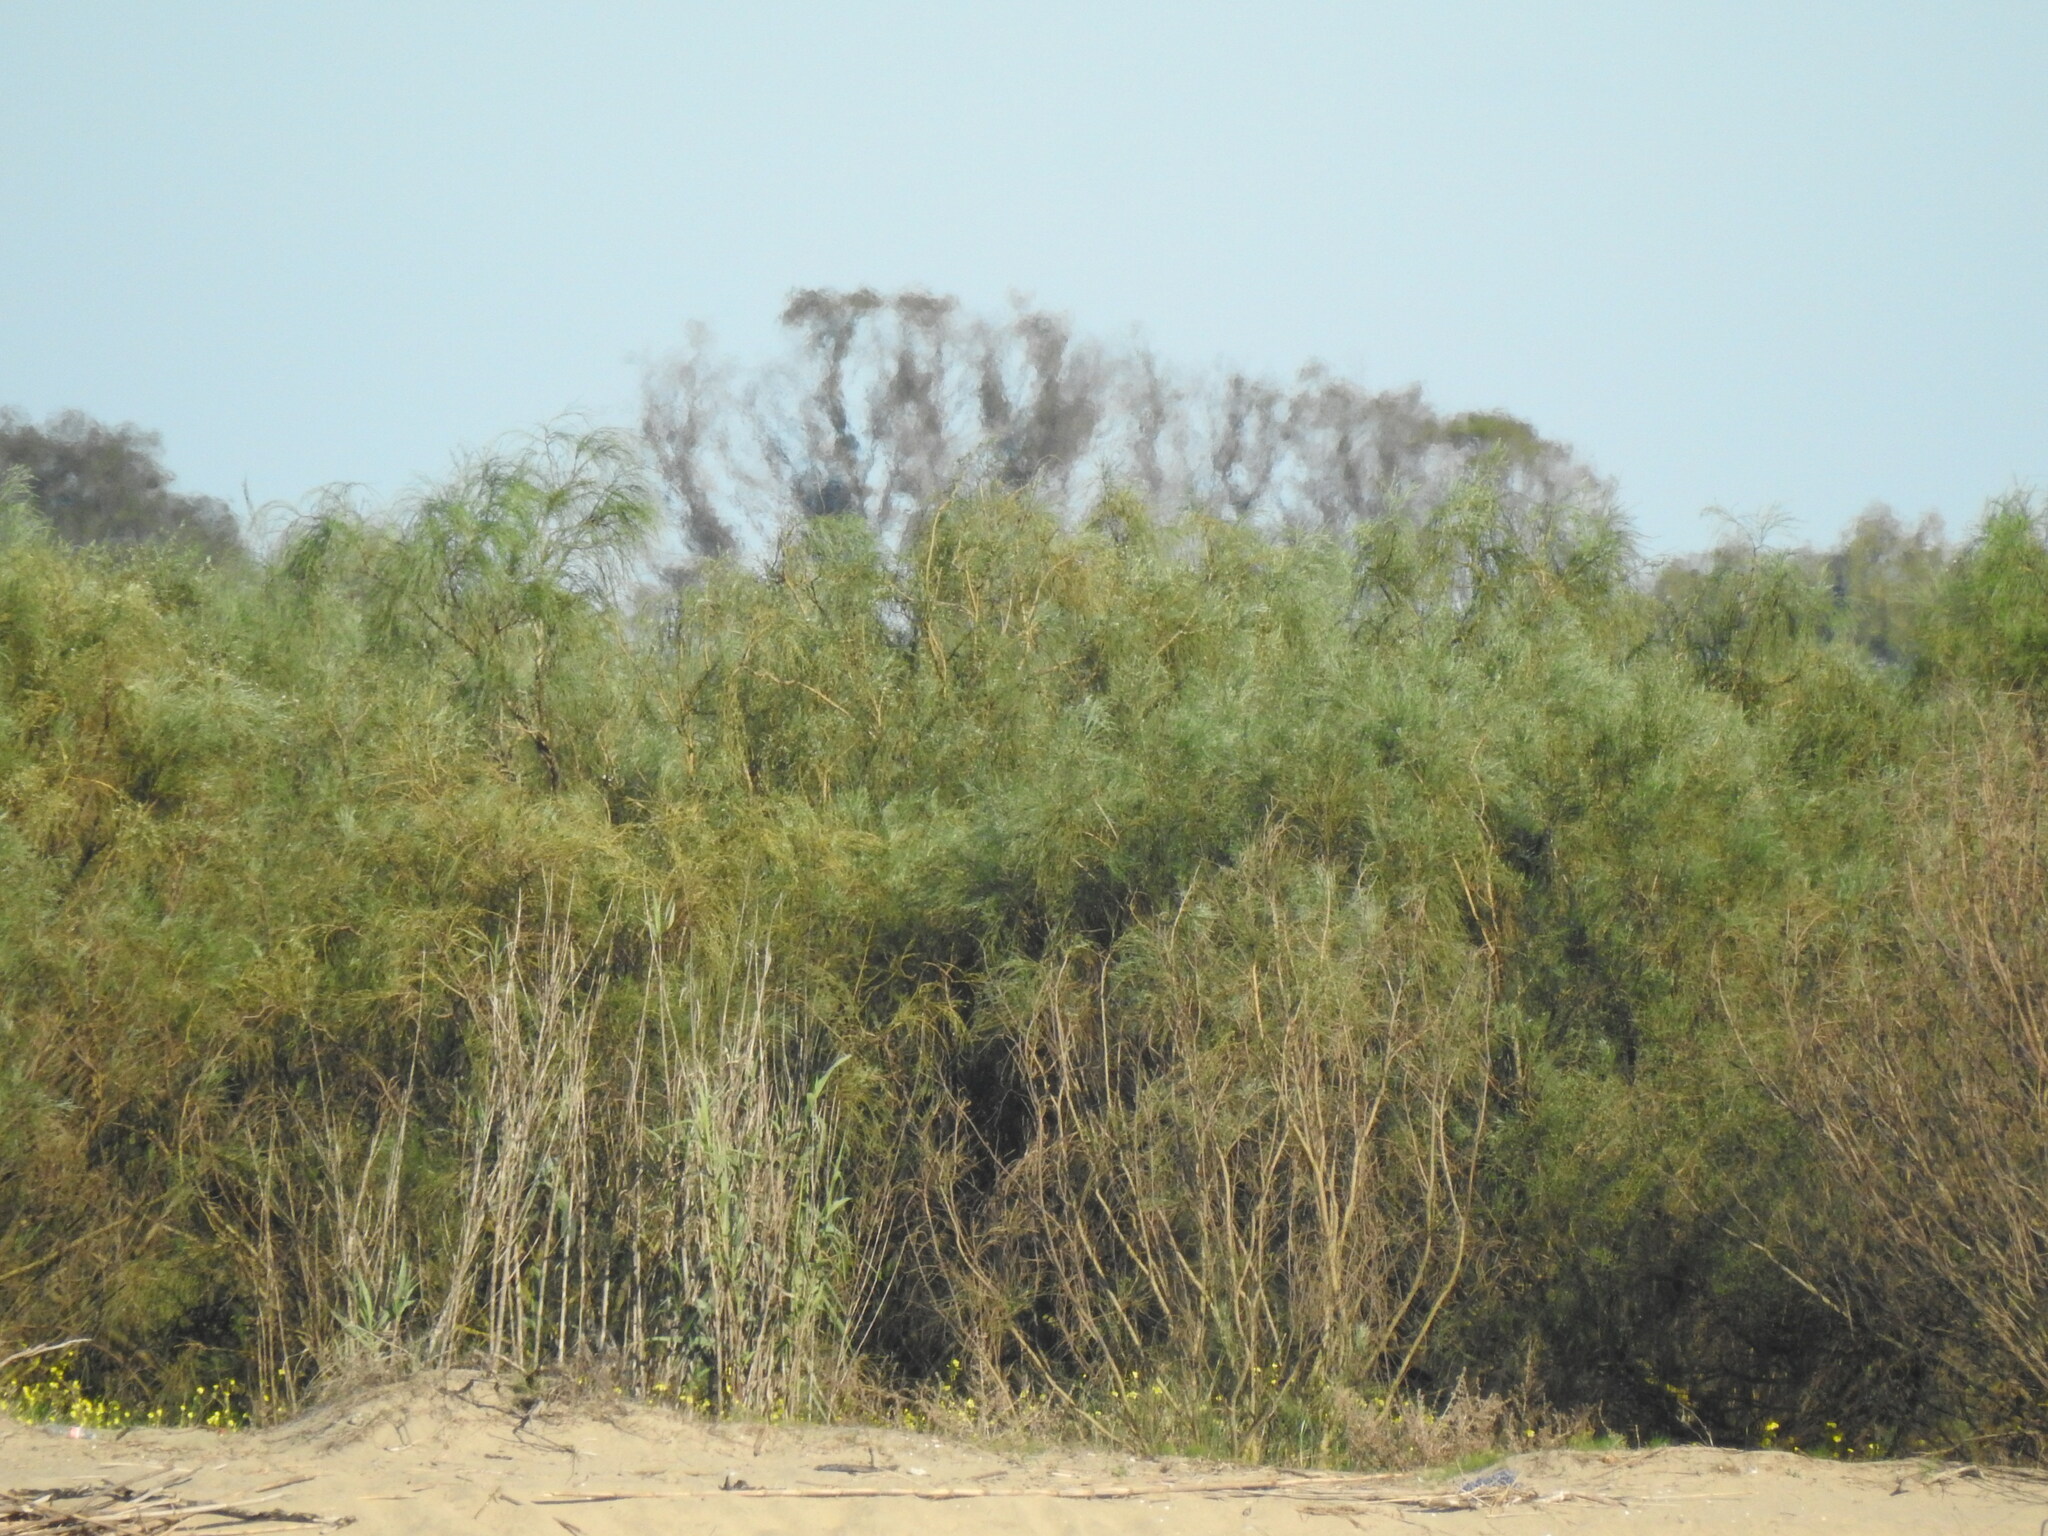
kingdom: Plantae
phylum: Tracheophyta
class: Magnoliopsida
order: Fabales
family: Fabaceae
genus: Retama
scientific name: Retama monosperma
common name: Bridal broom
